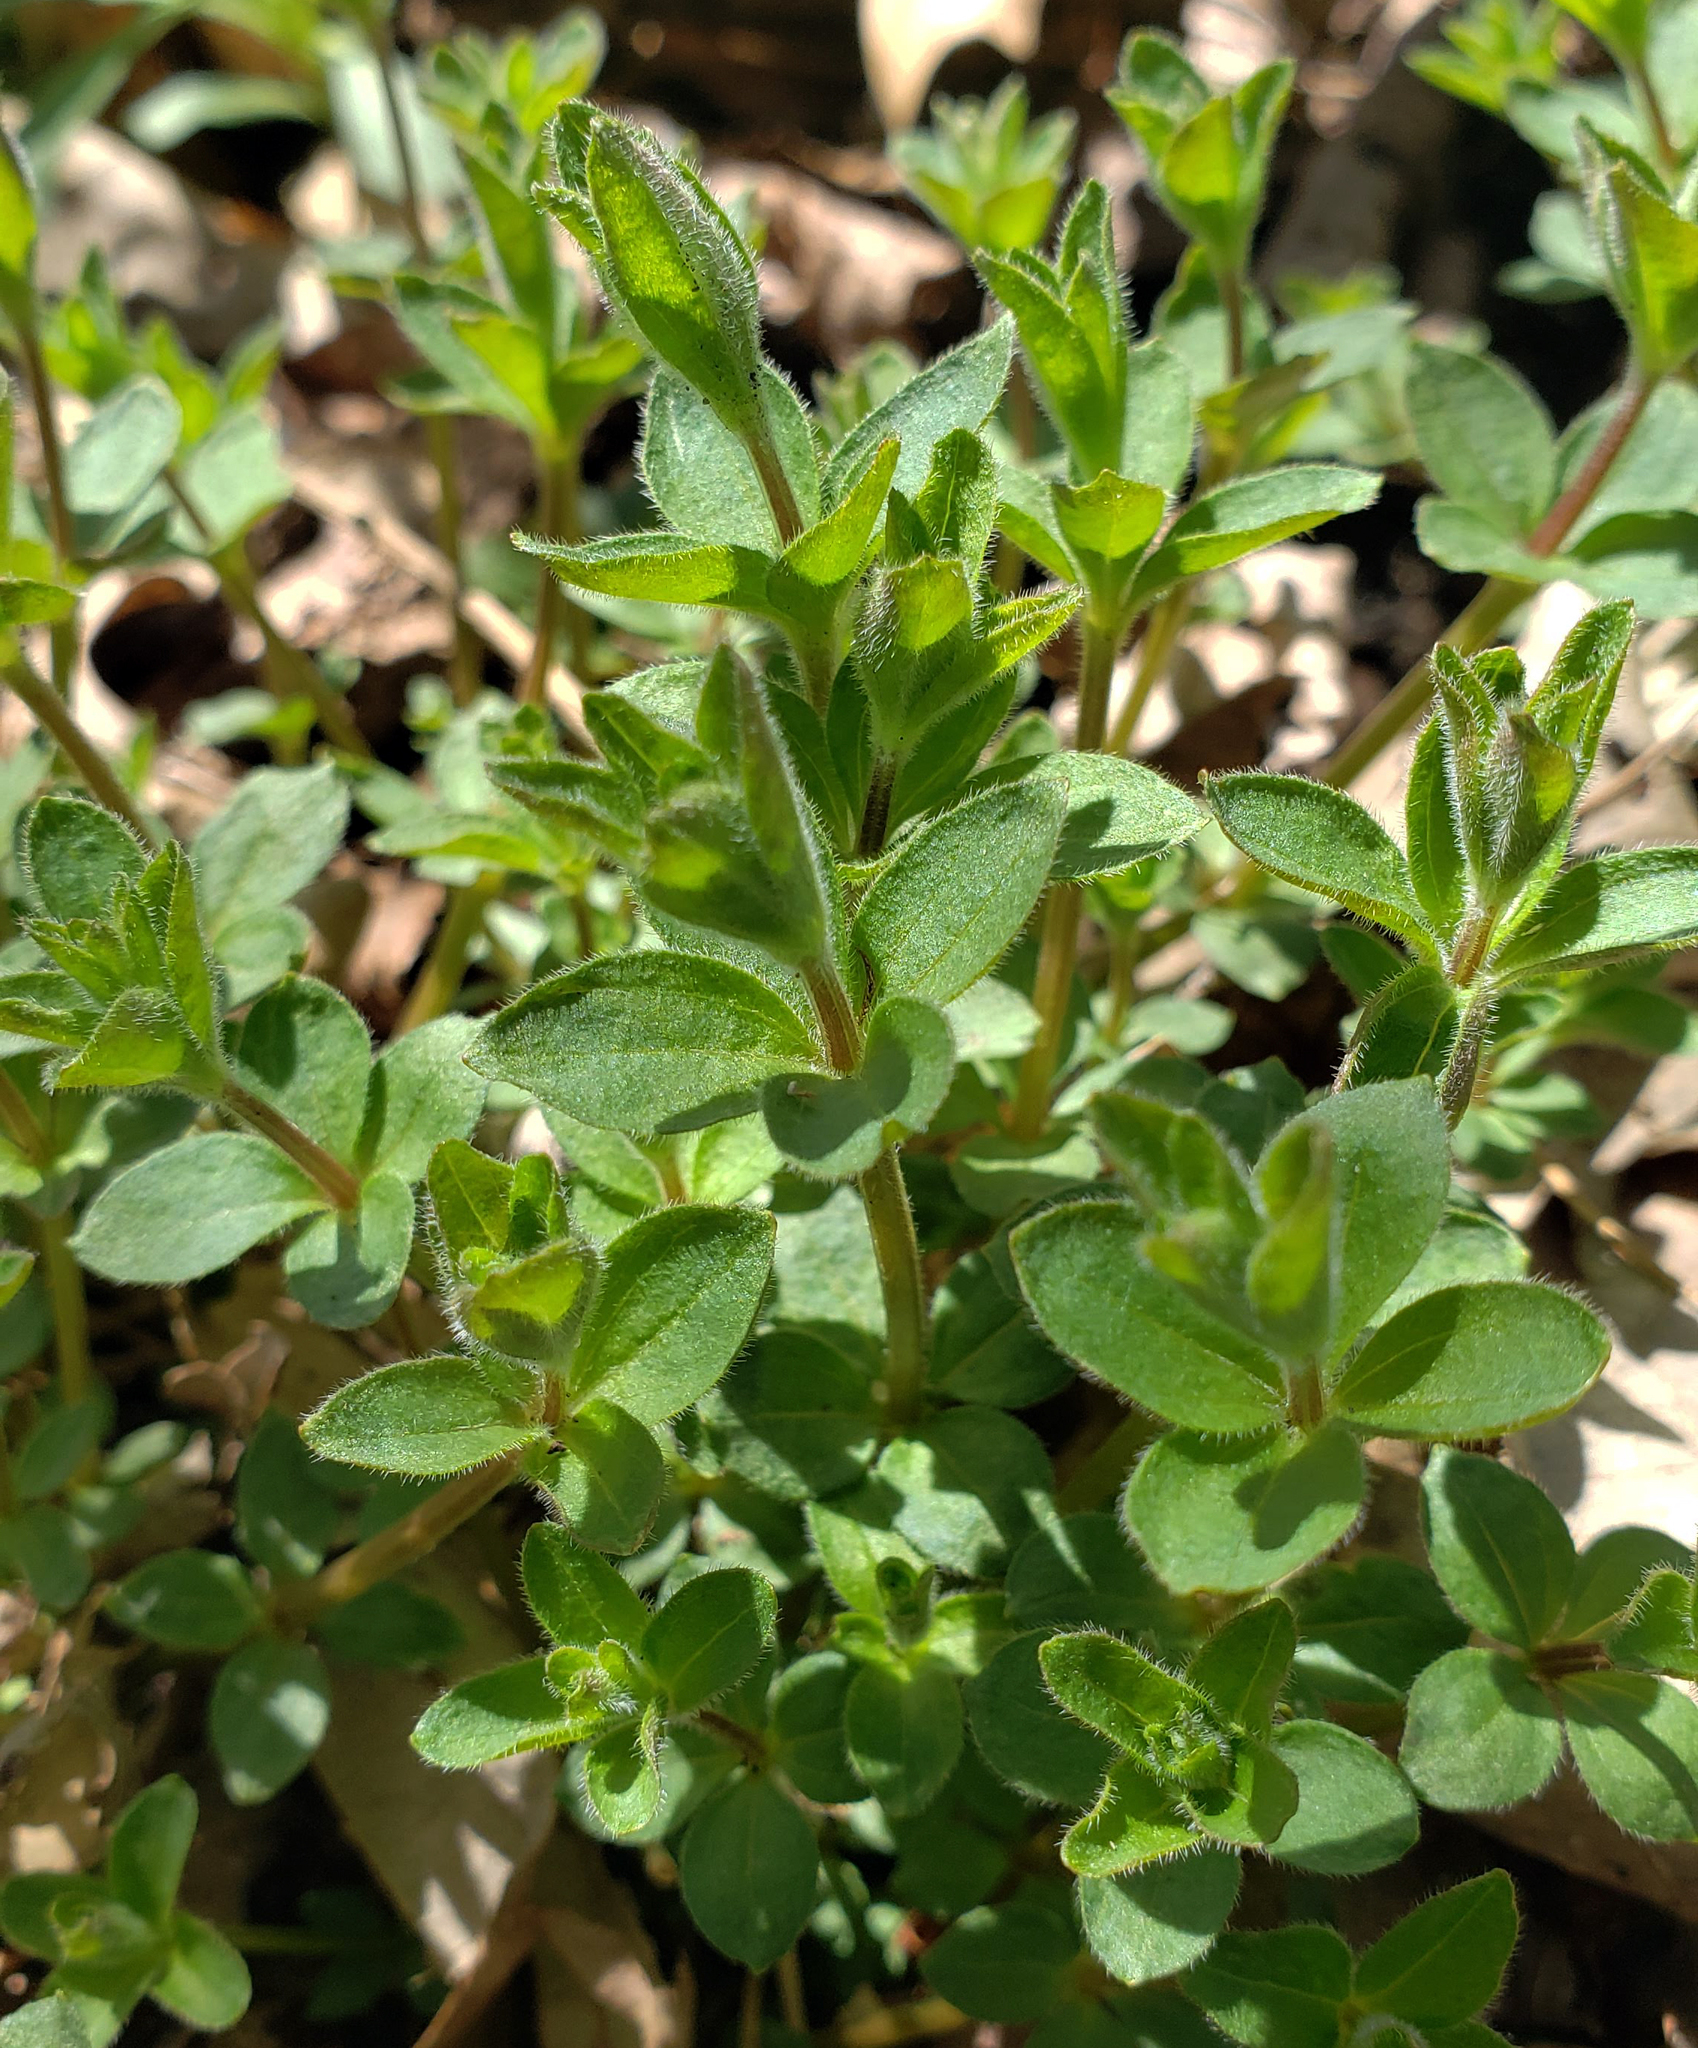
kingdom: Plantae
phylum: Tracheophyta
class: Magnoliopsida
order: Gentianales
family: Rubiaceae
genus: Galium
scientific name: Galium circaezans
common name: Forest bedstraw
